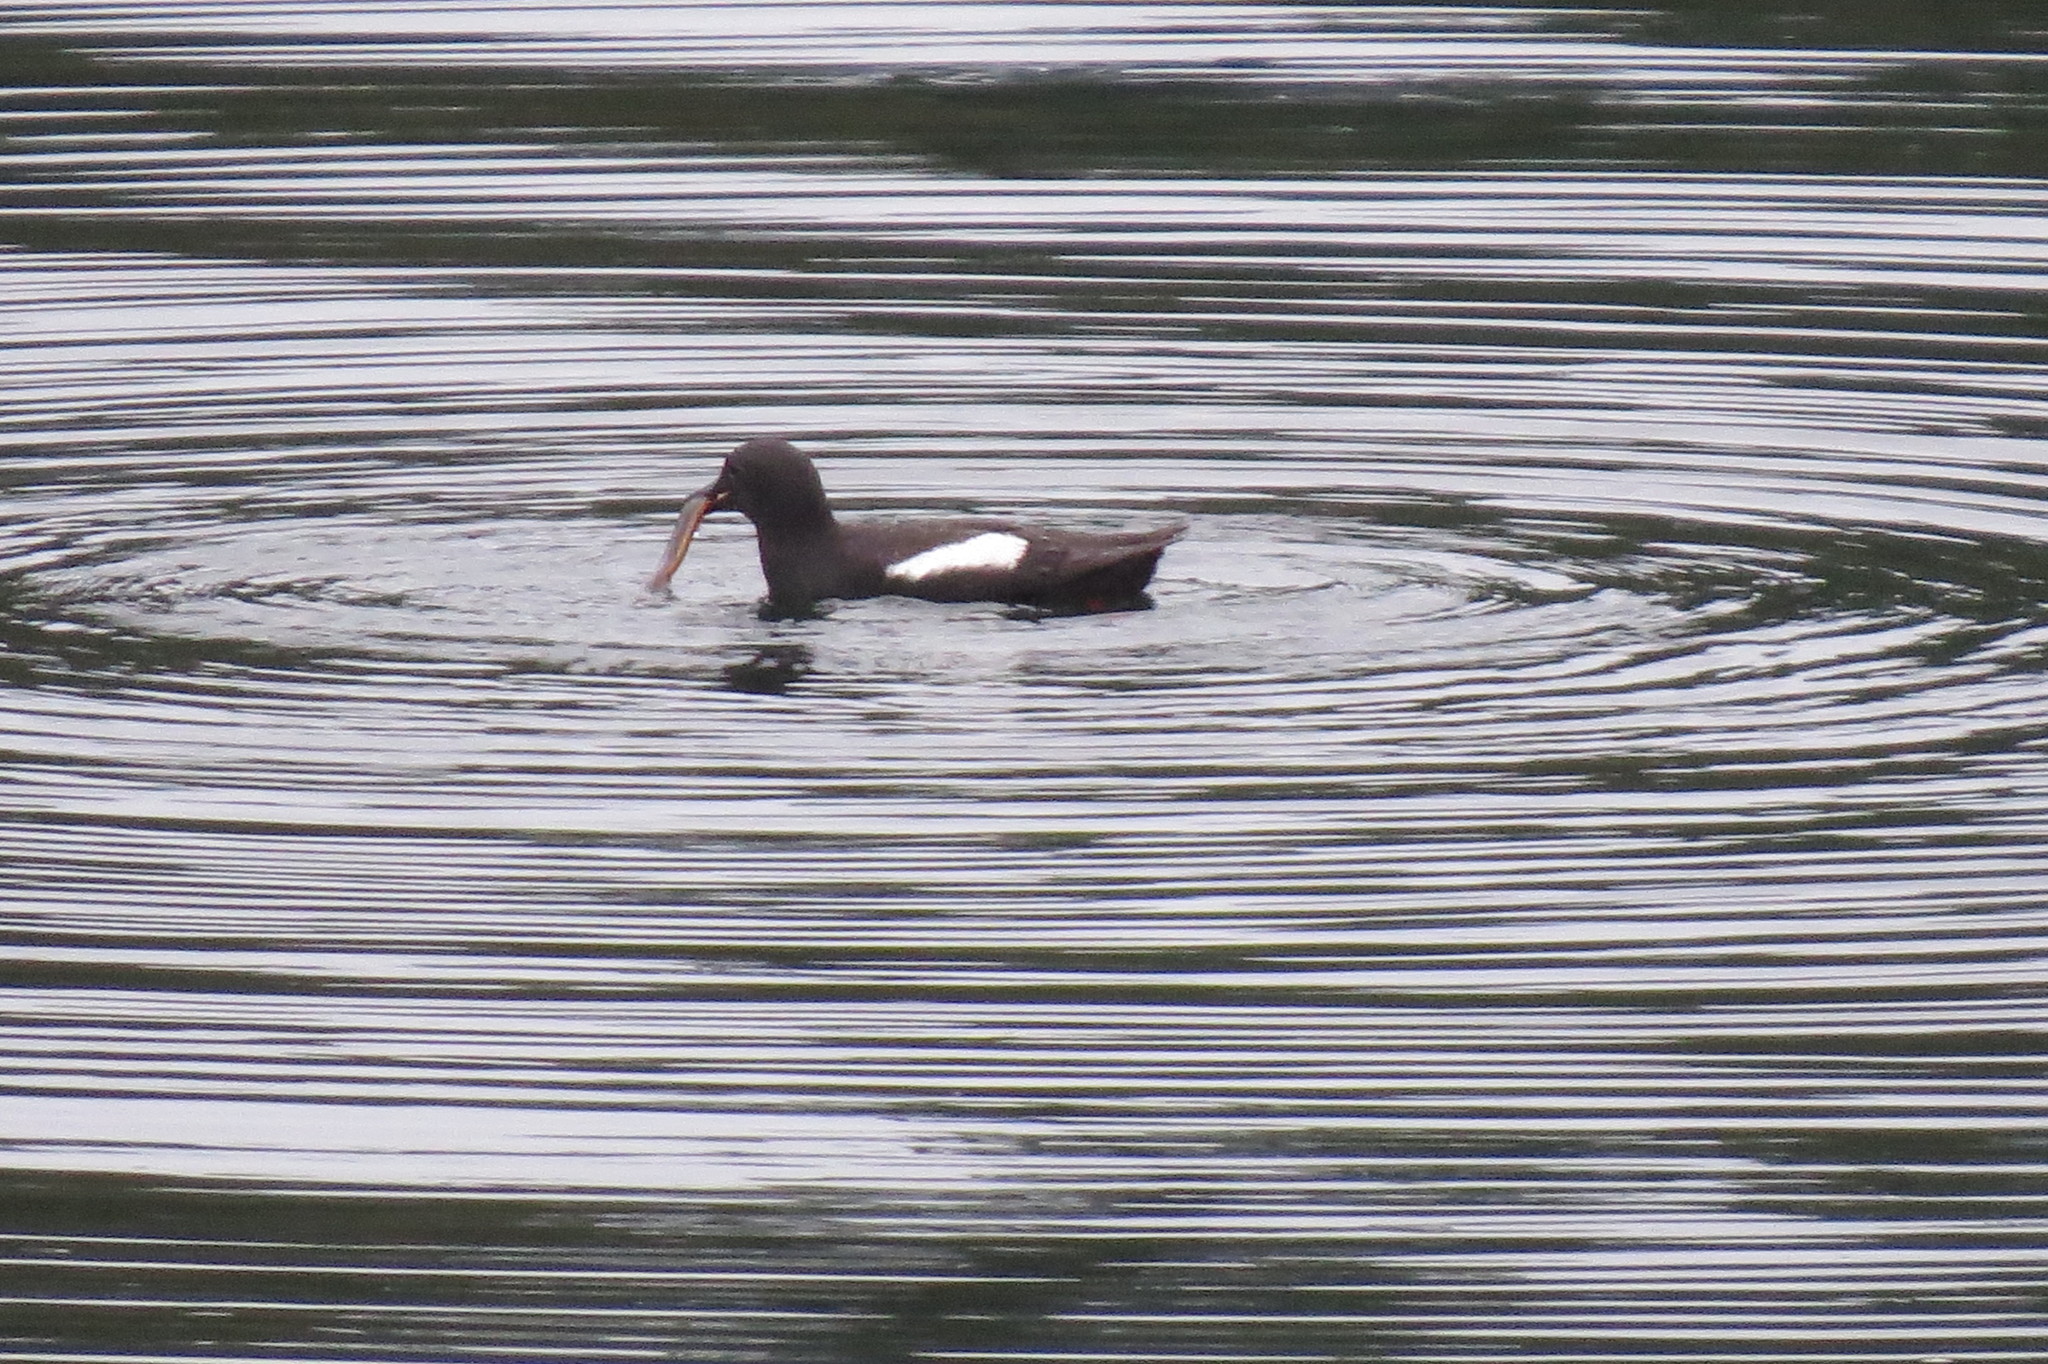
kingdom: Animalia
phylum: Chordata
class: Aves
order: Charadriiformes
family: Alcidae
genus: Cepphus
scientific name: Cepphus columba
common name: Pigeon guillemot
